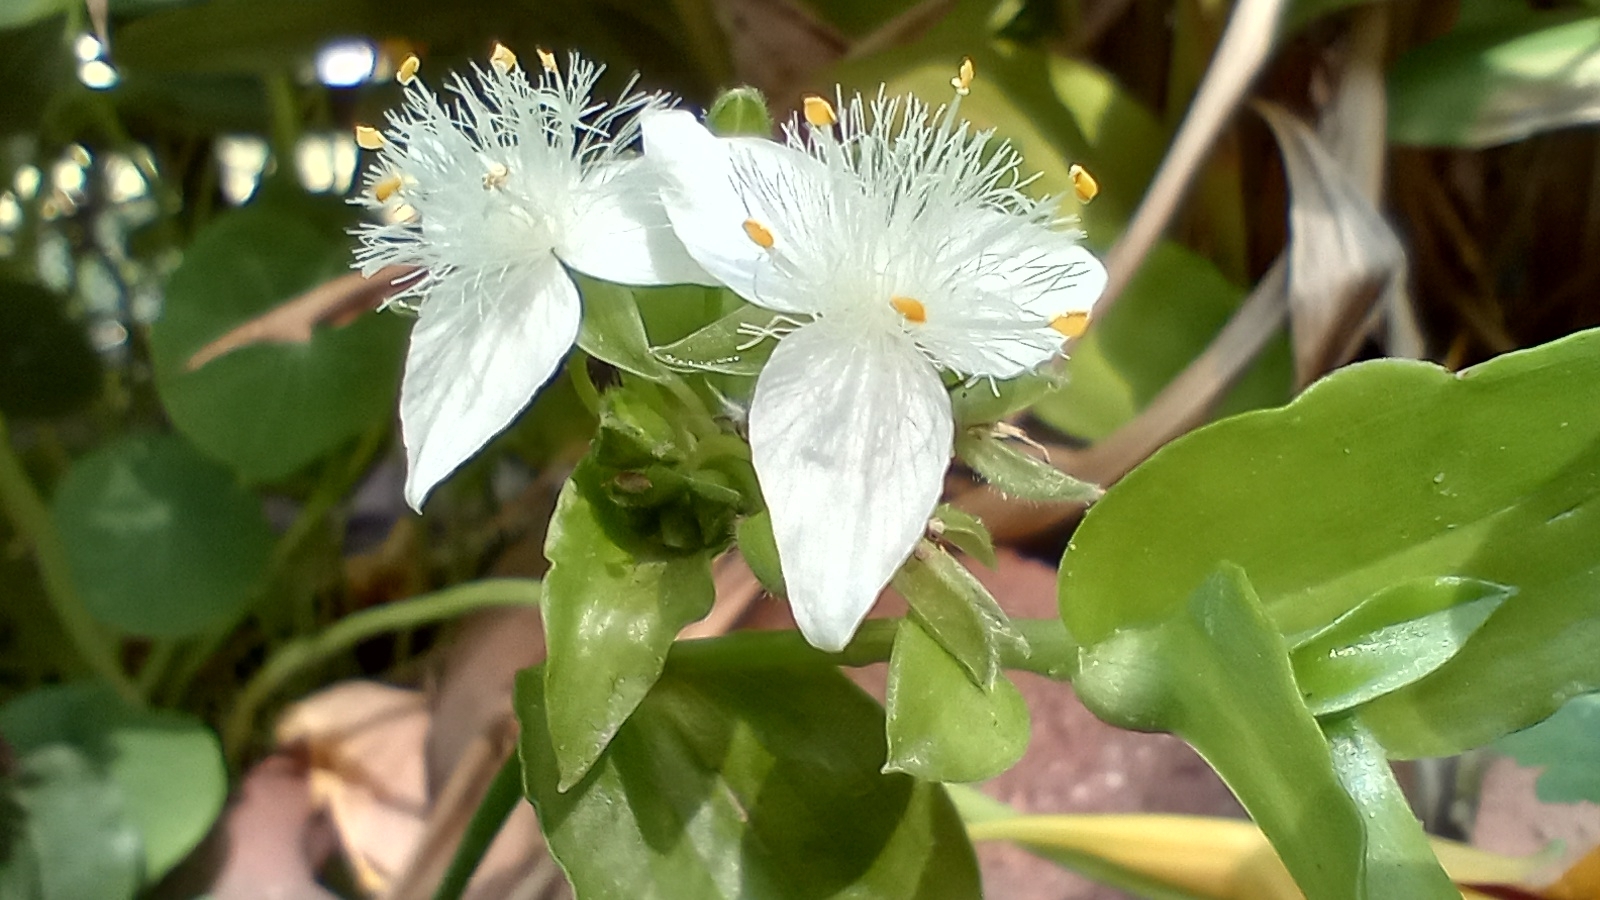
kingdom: Plantae
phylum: Tracheophyta
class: Liliopsida
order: Commelinales
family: Commelinaceae
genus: Tradescantia
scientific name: Tradescantia fluminensis
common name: Wandering-jew
